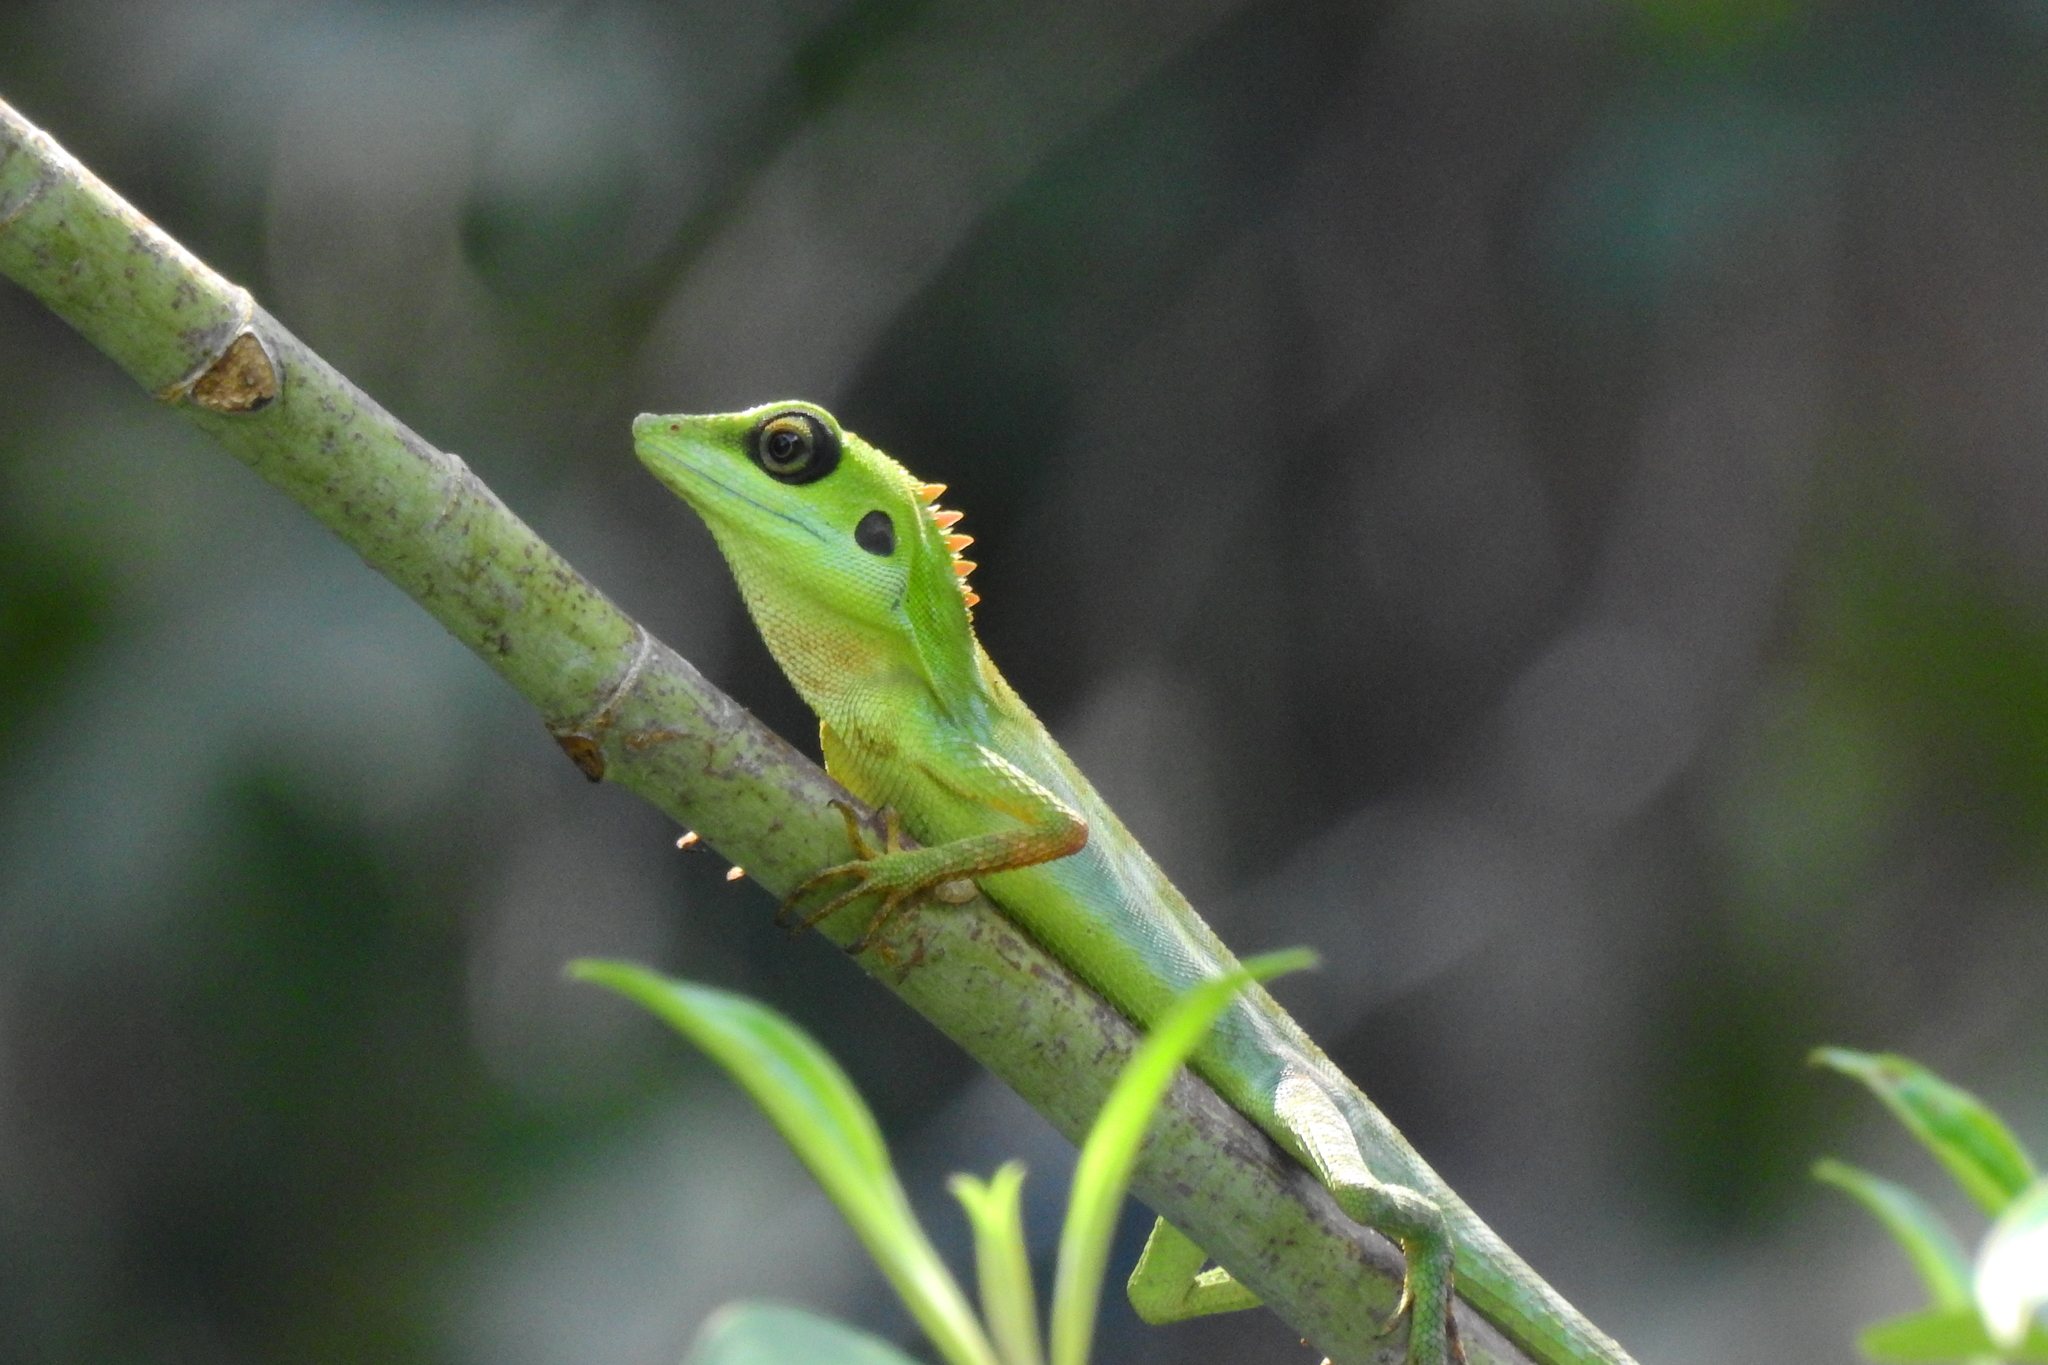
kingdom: Animalia
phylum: Chordata
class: Squamata
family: Agamidae
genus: Bronchocela
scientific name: Bronchocela cristatella
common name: Green crested lizard
